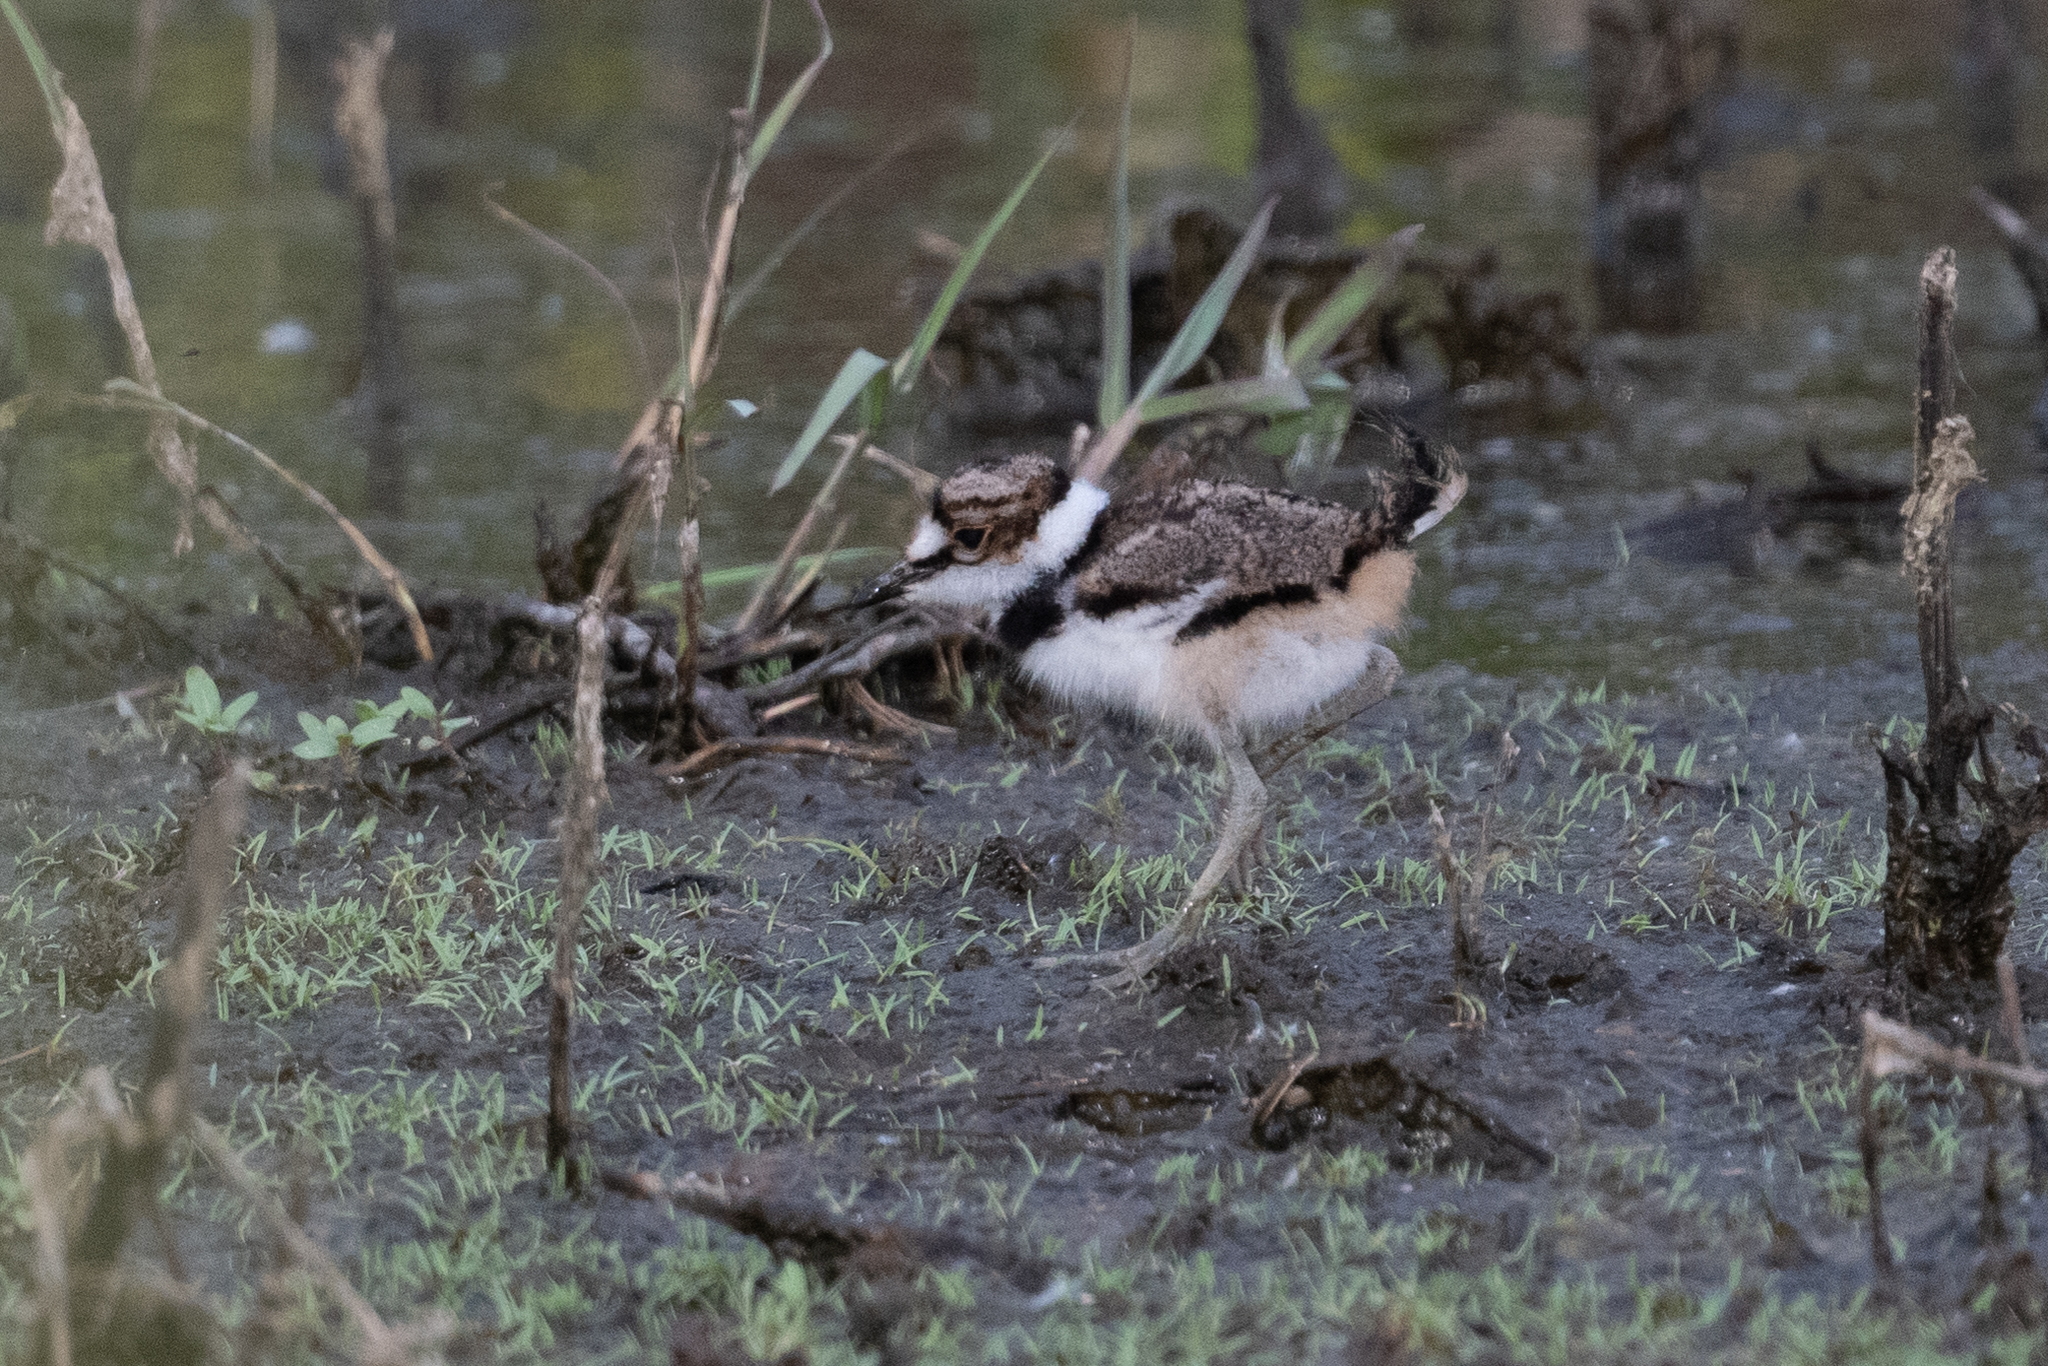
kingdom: Animalia
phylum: Chordata
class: Aves
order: Charadriiformes
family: Charadriidae
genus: Charadrius
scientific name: Charadrius vociferus
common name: Killdeer
